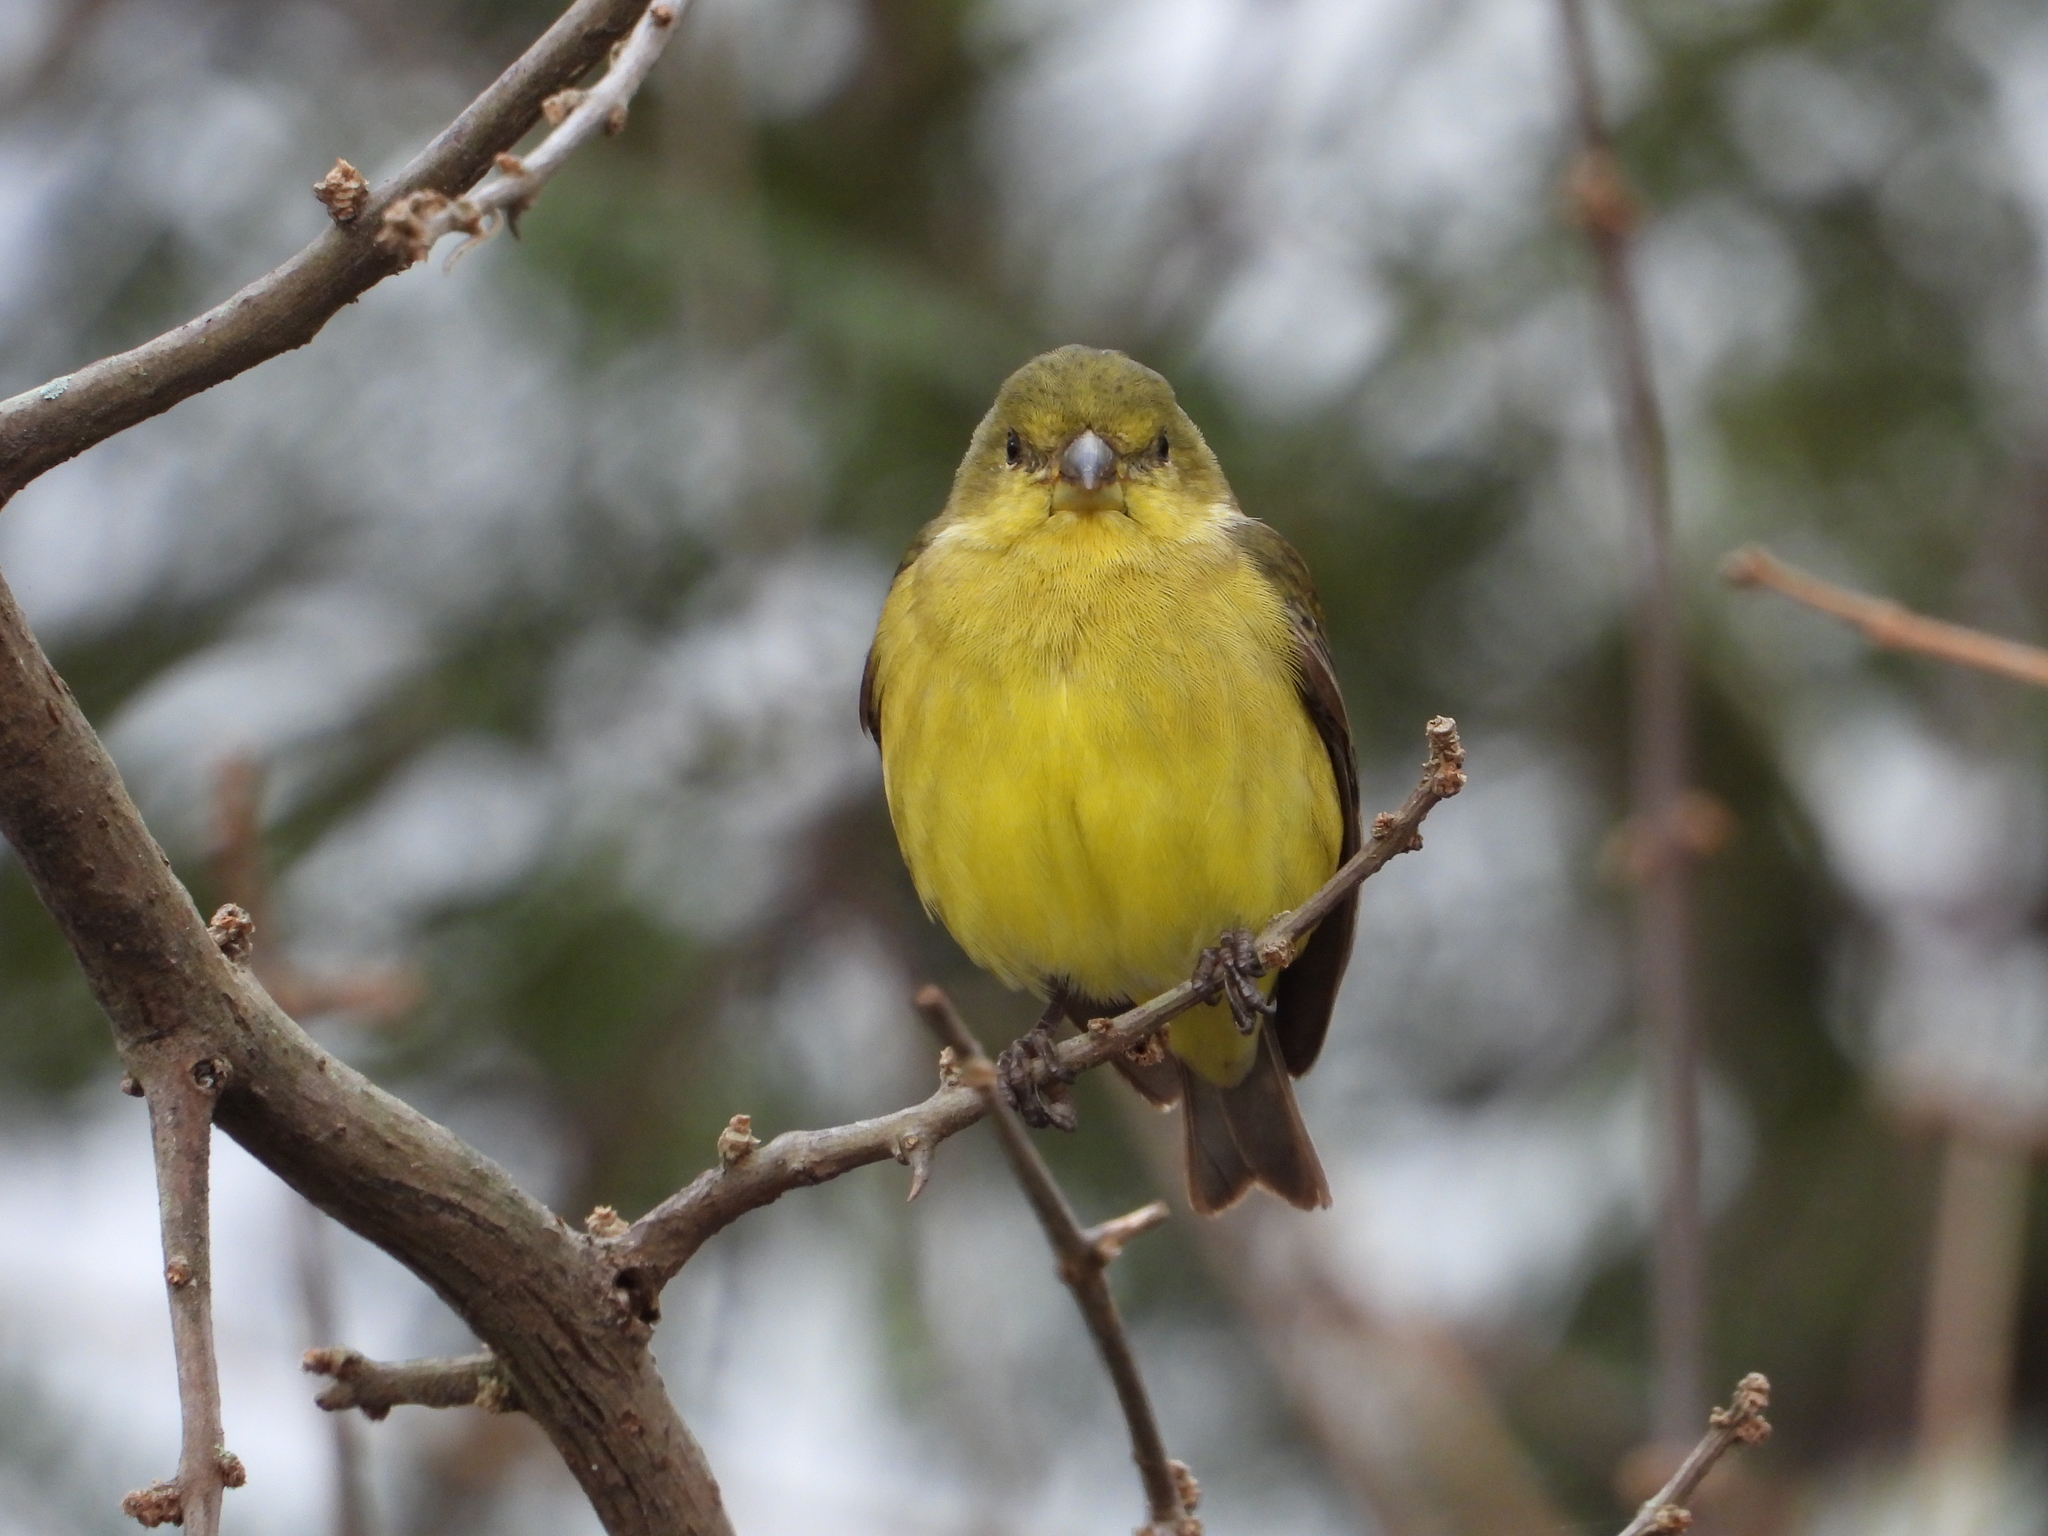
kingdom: Animalia
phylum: Chordata
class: Aves
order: Passeriformes
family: Fringillidae
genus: Spinus
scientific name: Spinus psaltria
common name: Lesser goldfinch
